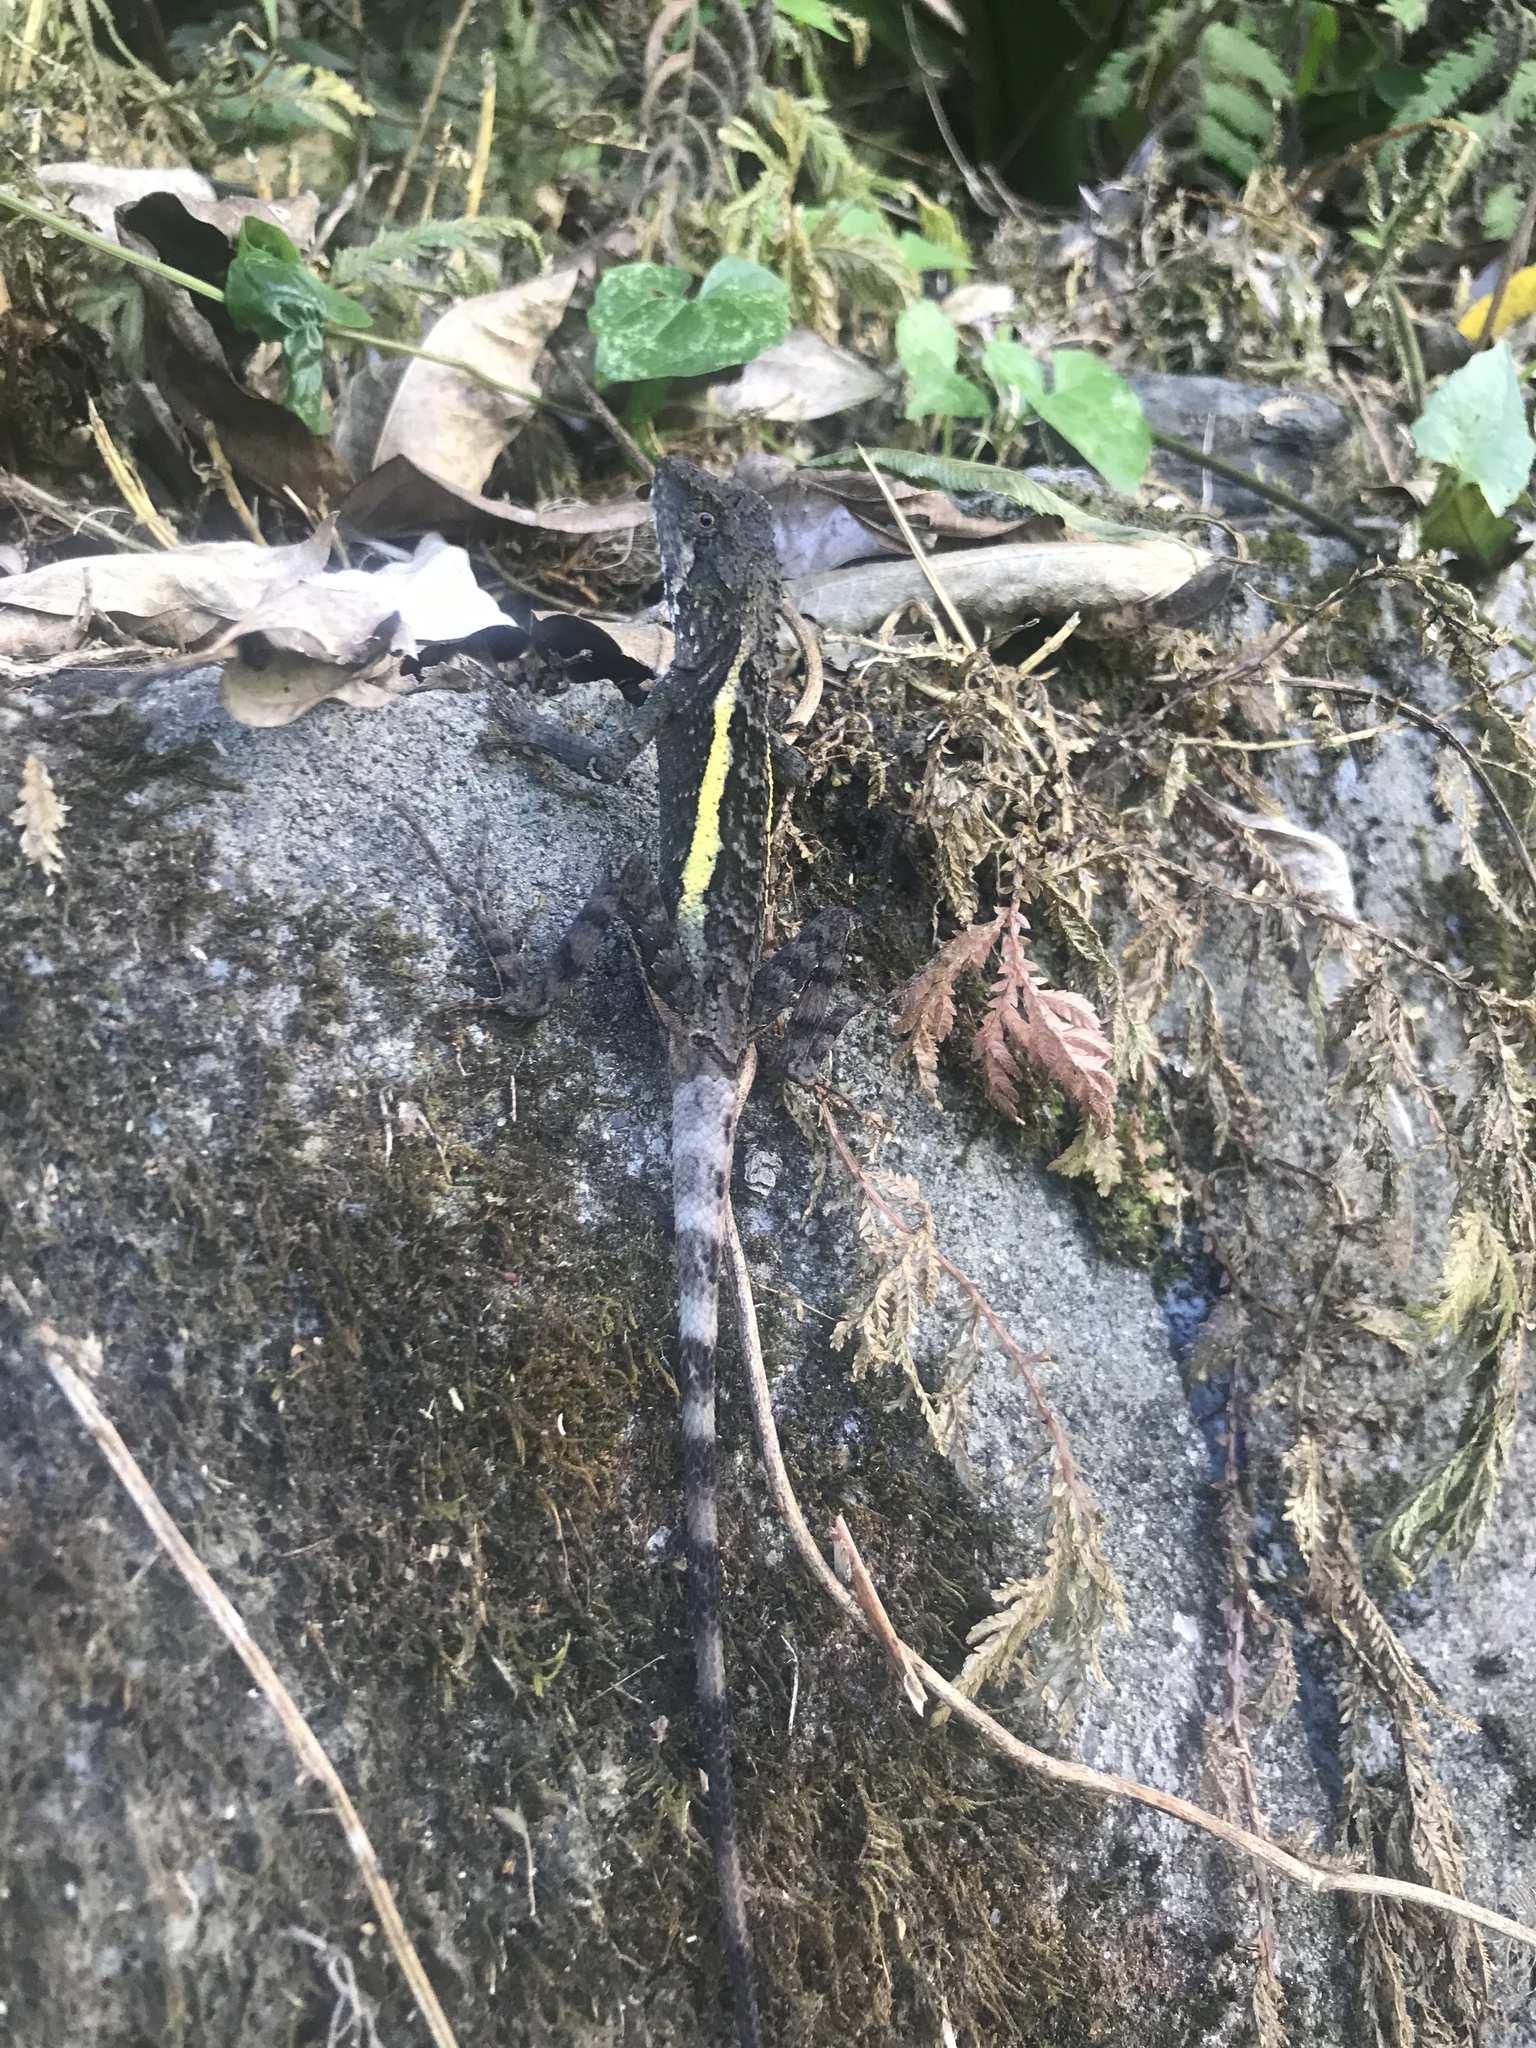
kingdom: Animalia
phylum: Chordata
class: Squamata
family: Agamidae
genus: Diploderma
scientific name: Diploderma swinhonis
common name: Taiwan japalure
